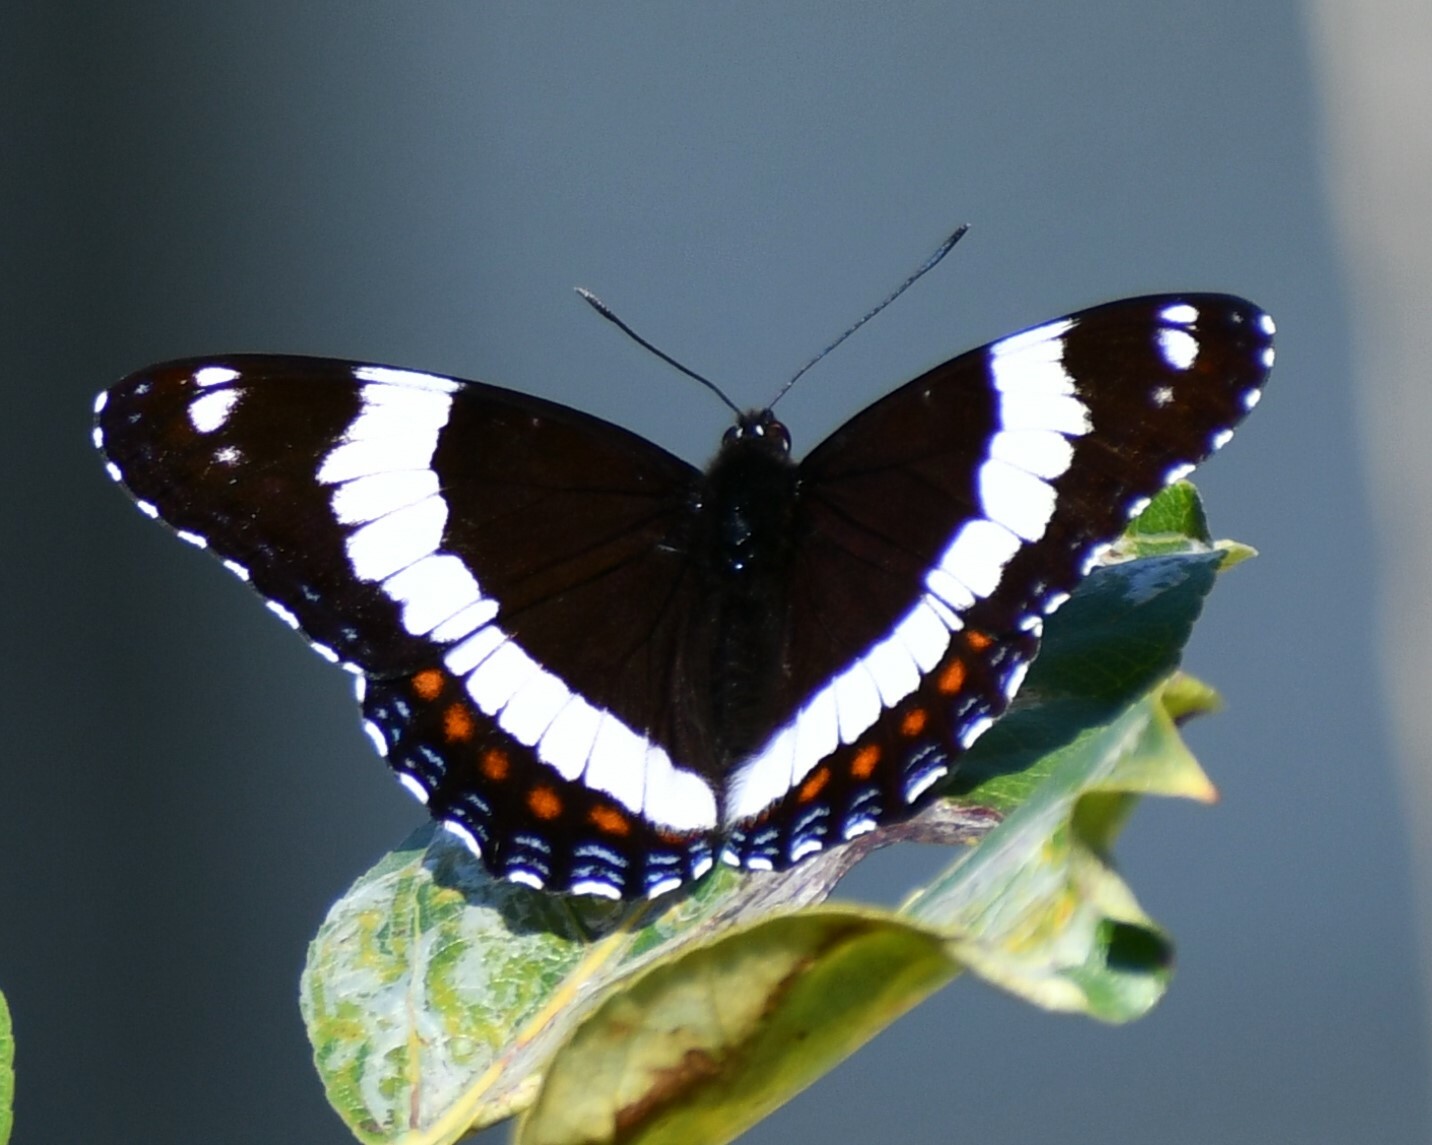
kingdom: Animalia
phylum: Arthropoda
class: Insecta
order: Lepidoptera
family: Nymphalidae
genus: Limenitis
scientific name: Limenitis arthemis
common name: Red-spotted admiral
